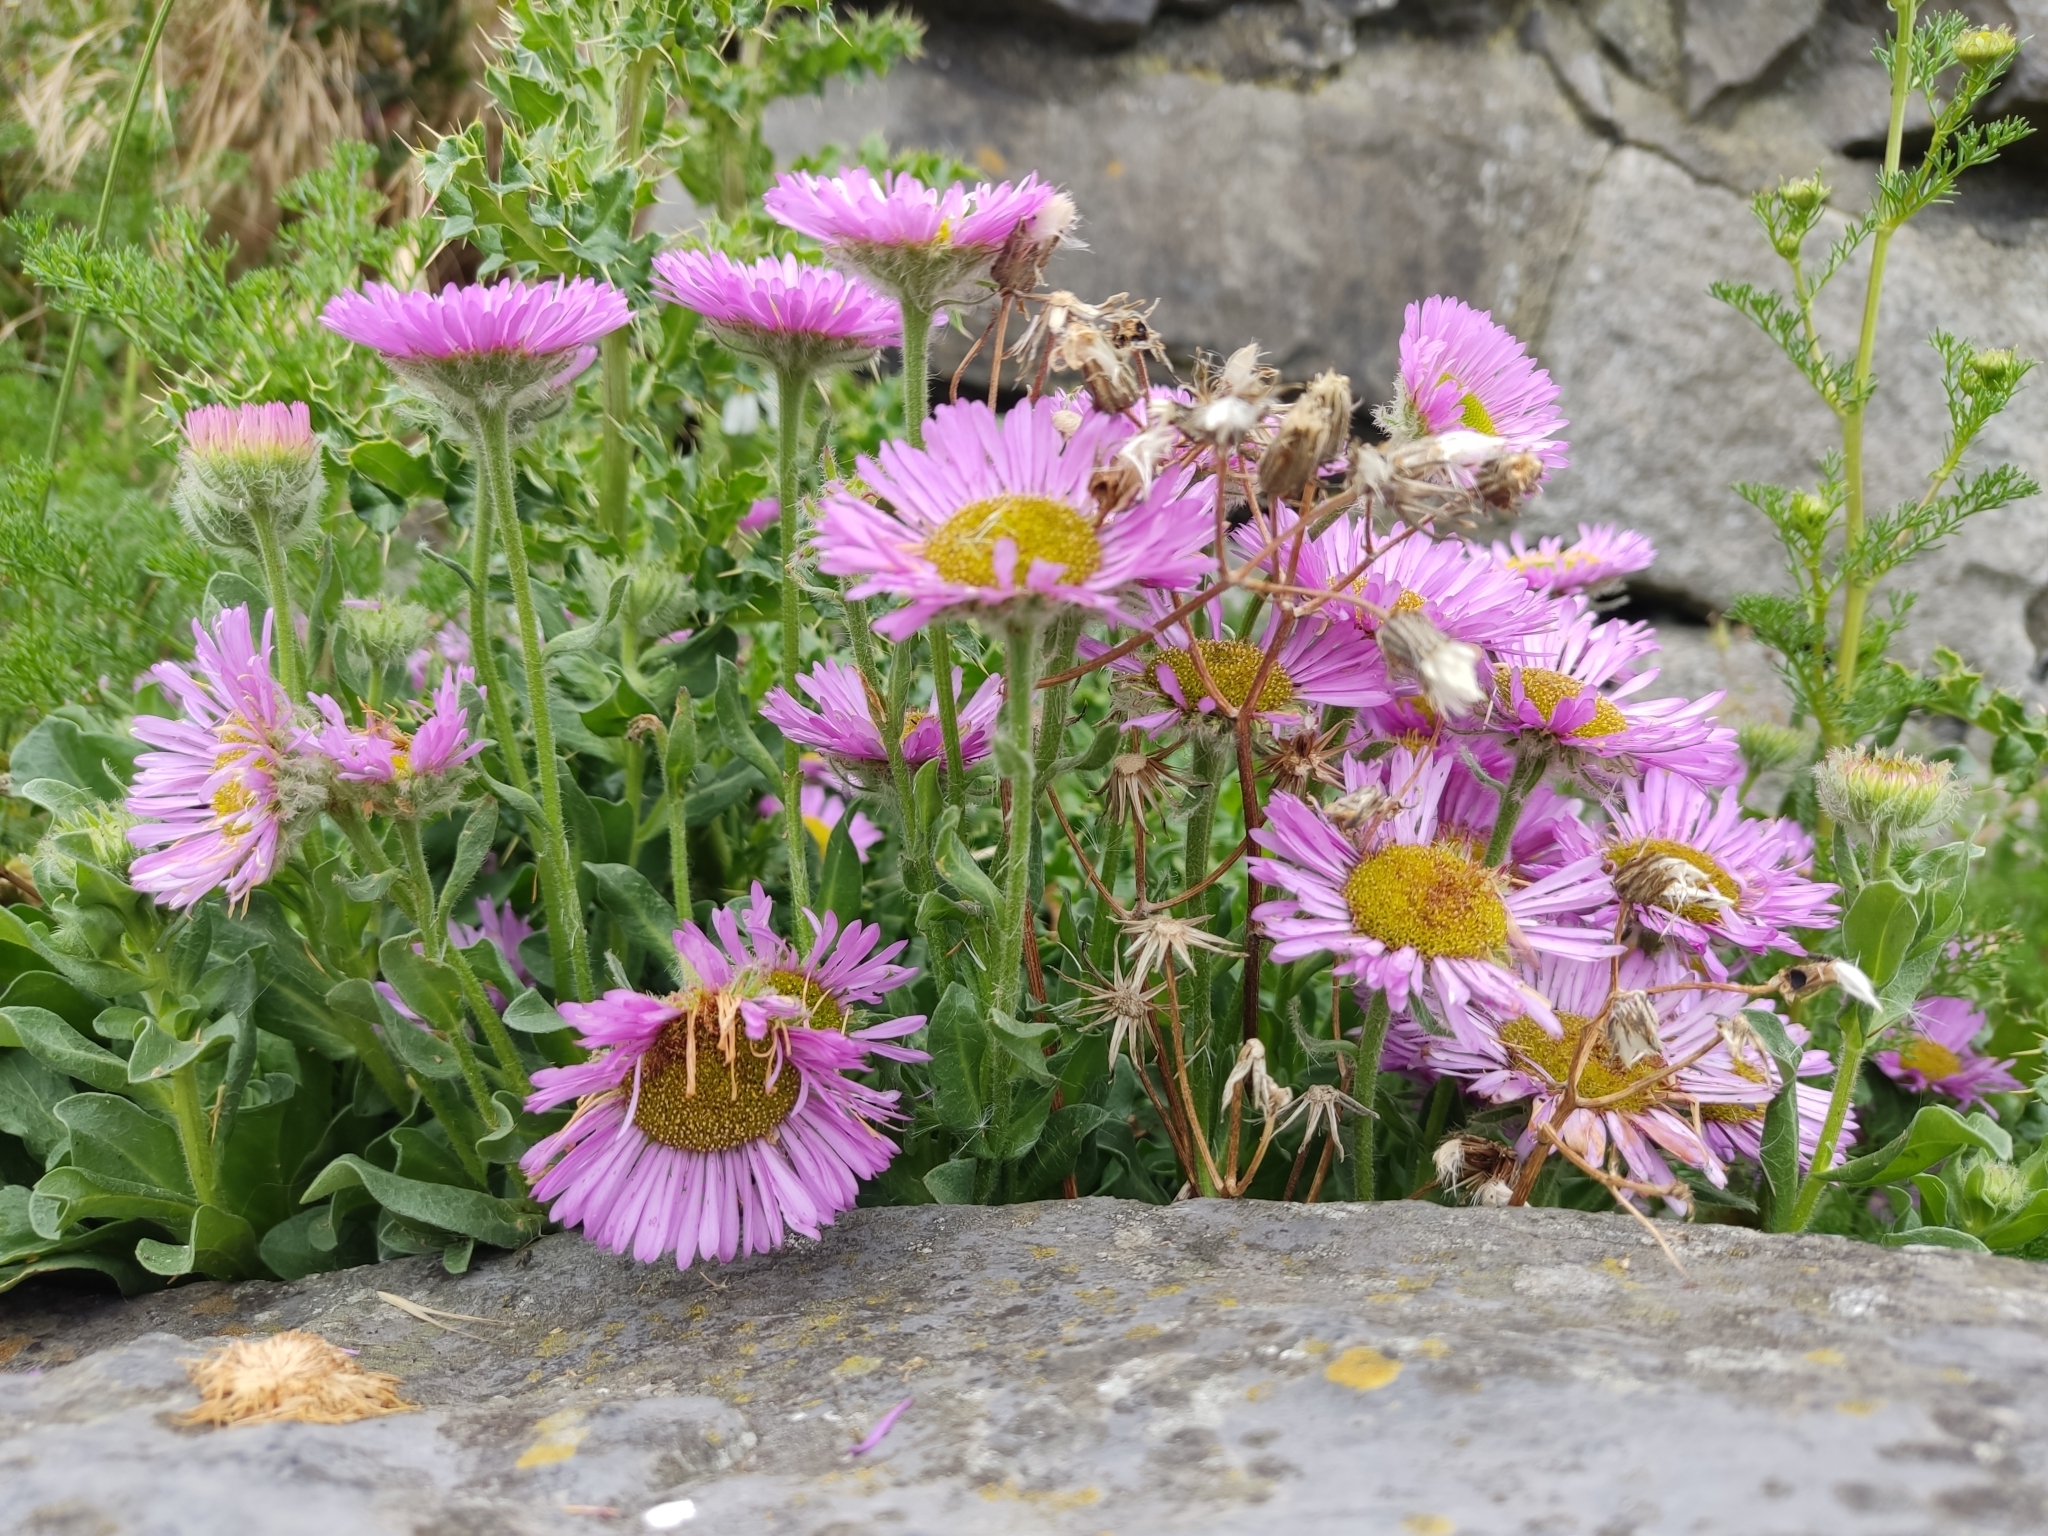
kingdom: Plantae
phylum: Tracheophyta
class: Magnoliopsida
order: Asterales
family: Asteraceae
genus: Erigeron
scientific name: Erigeron glaucus
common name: Seaside daisy
